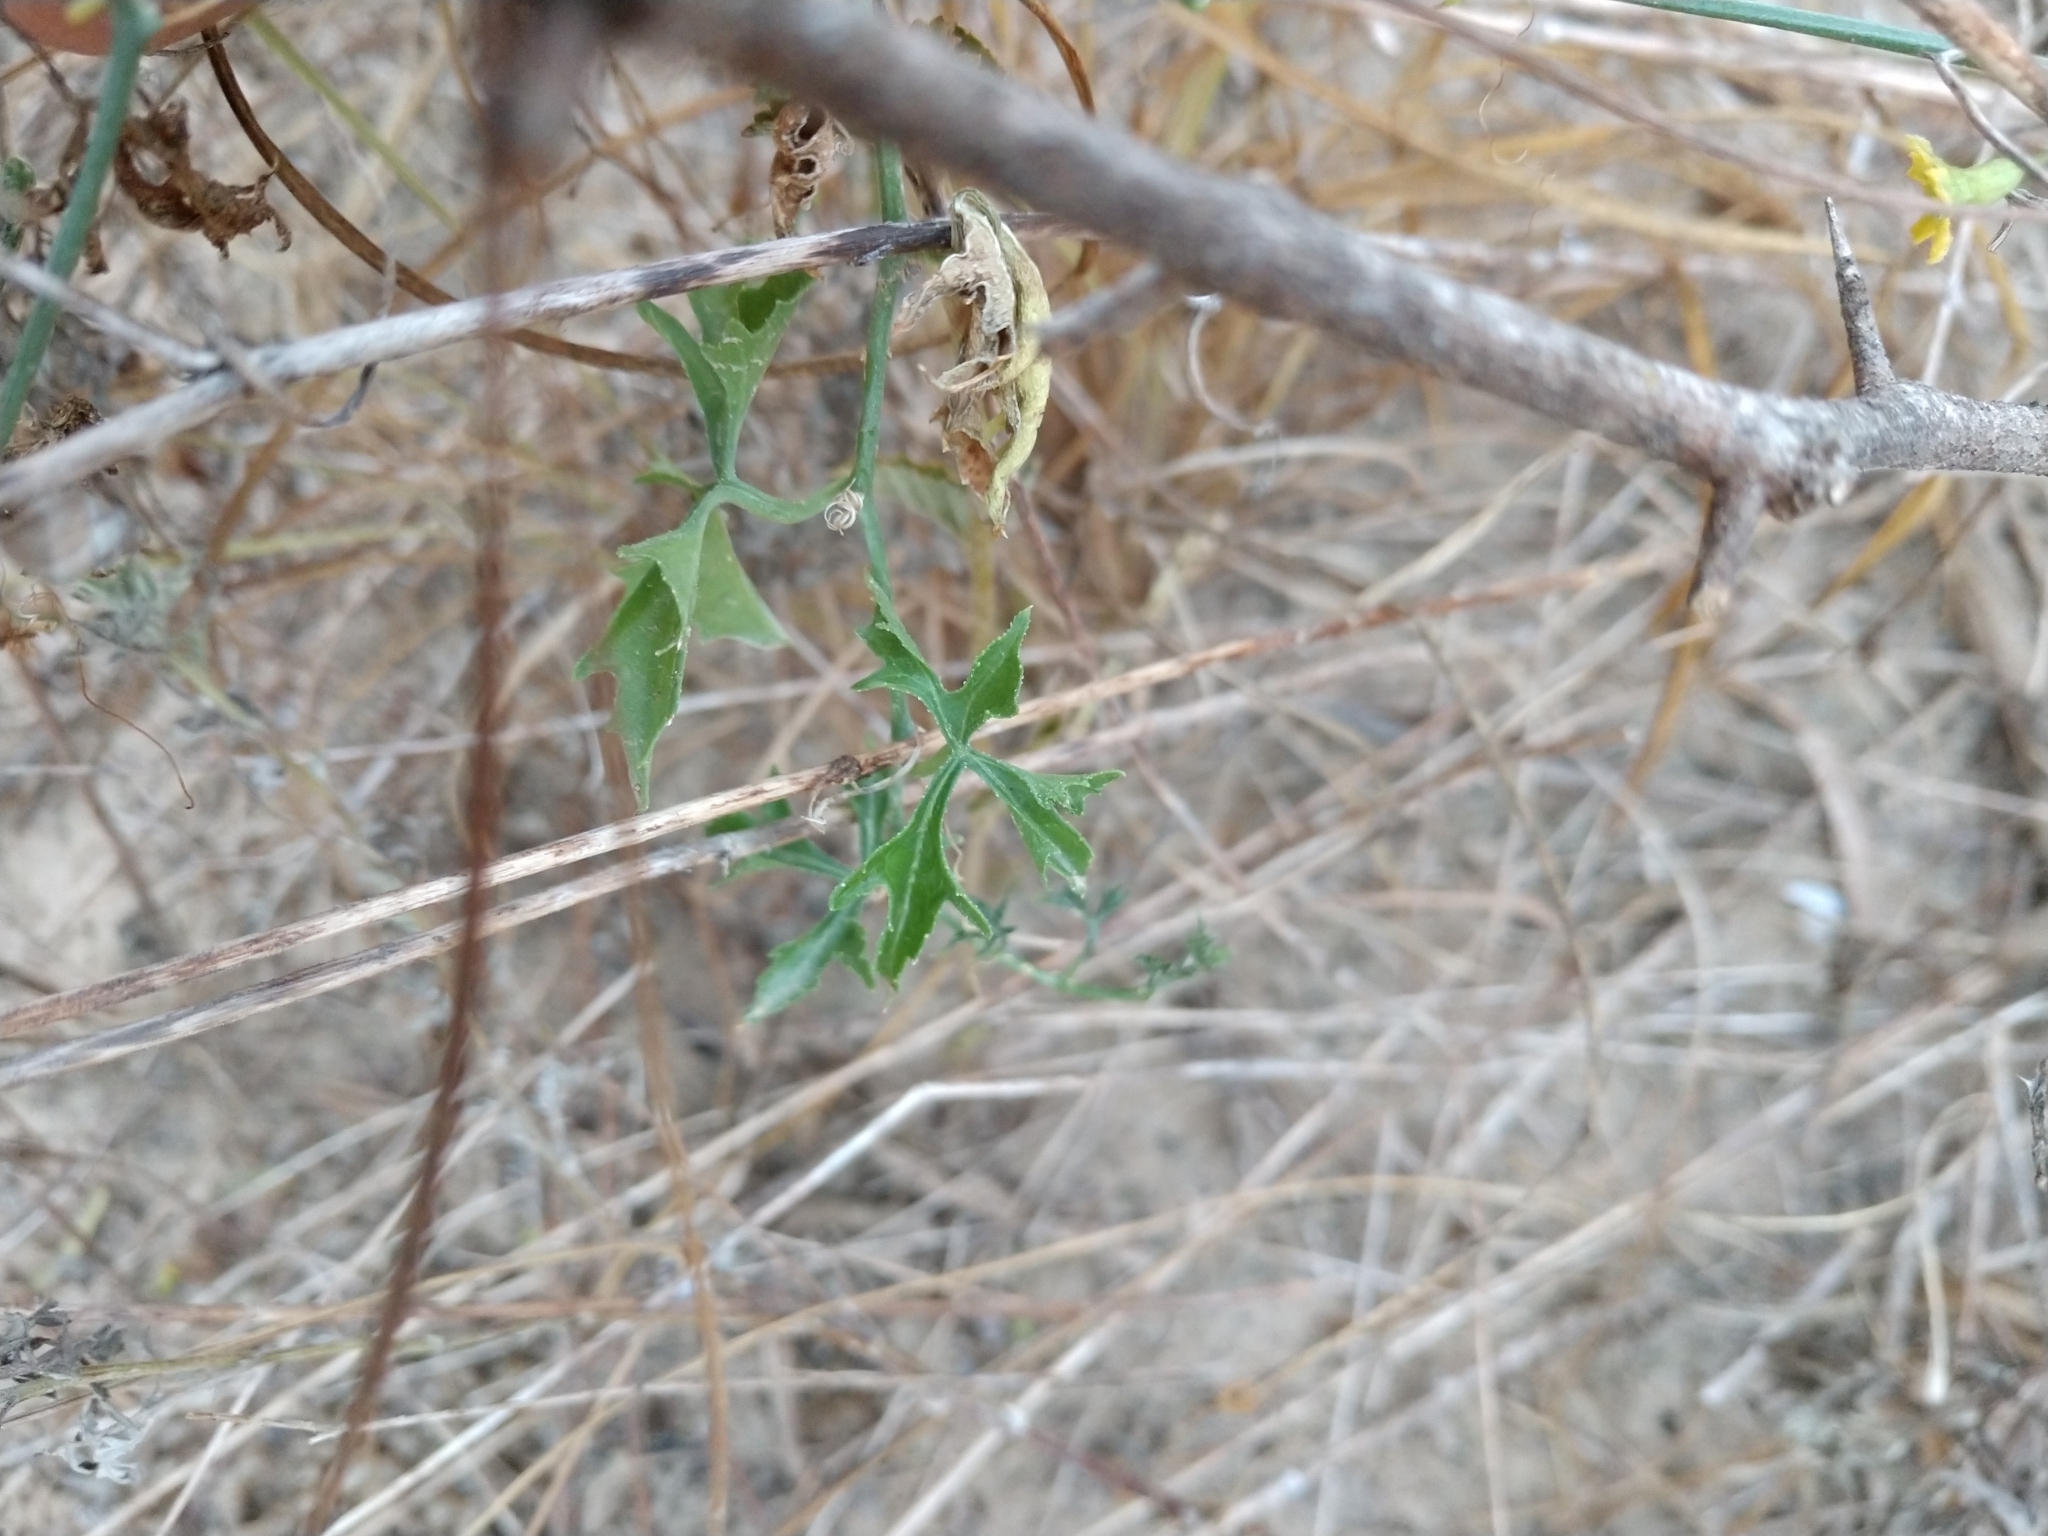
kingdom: Plantae
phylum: Tracheophyta
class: Magnoliopsida
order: Cucurbitales
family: Cucurbitaceae
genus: Ibervillea
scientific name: Ibervillea lindheimeri
